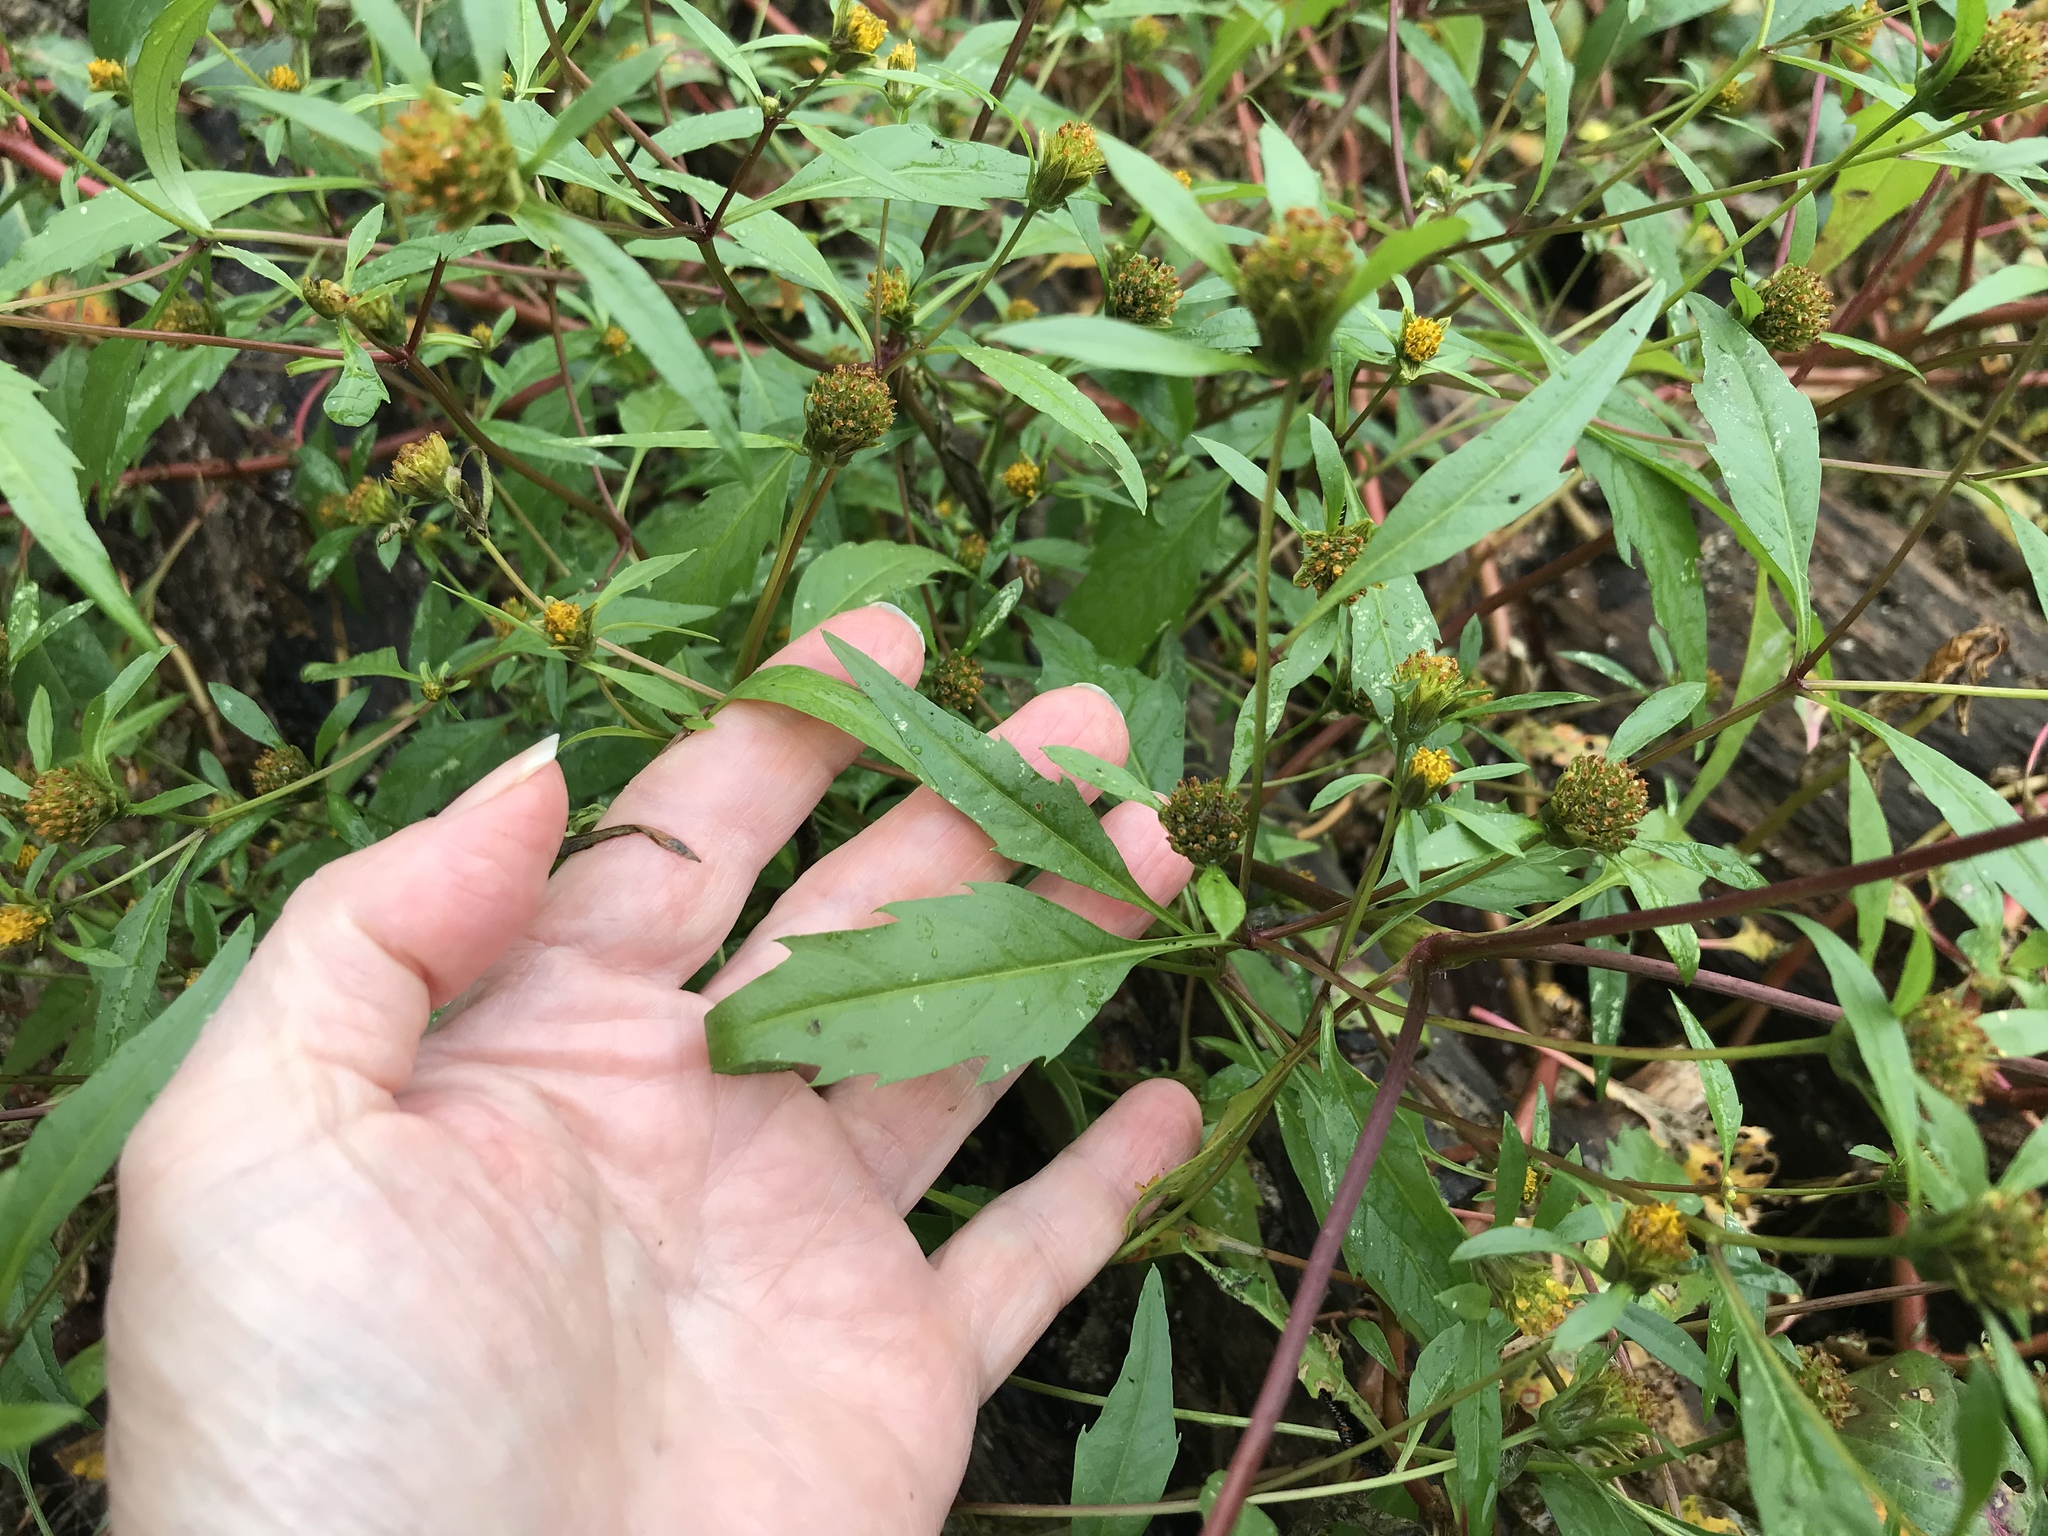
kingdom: Plantae
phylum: Tracheophyta
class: Magnoliopsida
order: Asterales
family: Asteraceae
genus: Bidens
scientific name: Bidens frondosa
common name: Beggarticks
